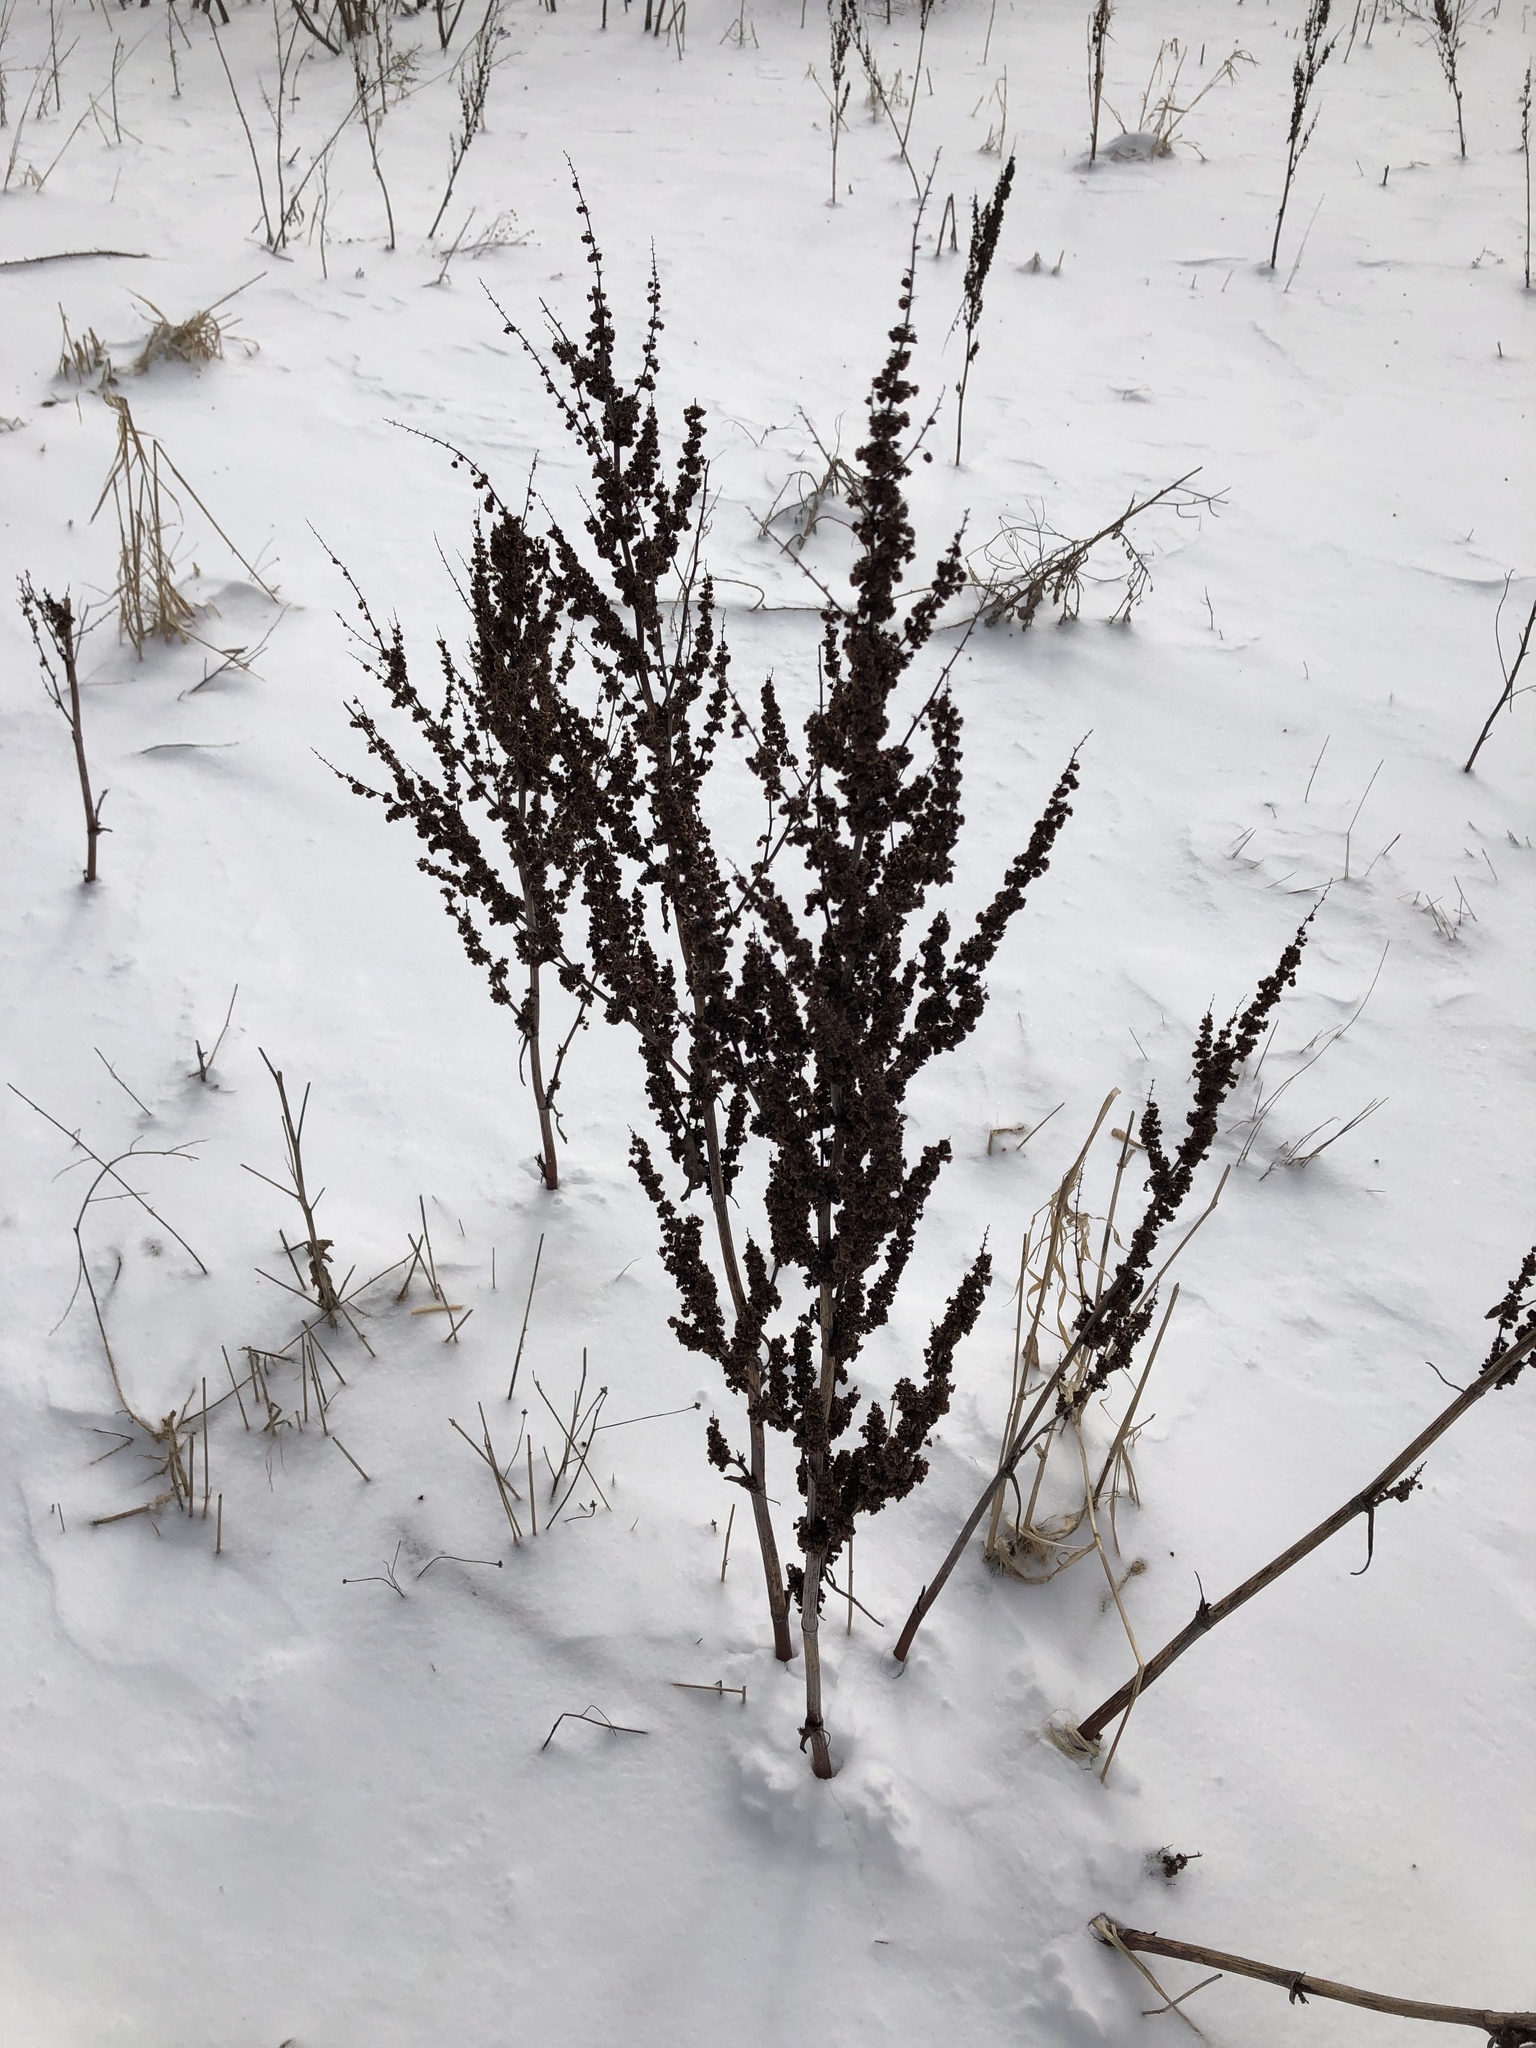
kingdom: Plantae
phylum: Tracheophyta
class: Magnoliopsida
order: Caryophyllales
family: Polygonaceae
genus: Rumex
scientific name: Rumex crispus
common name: Curled dock
